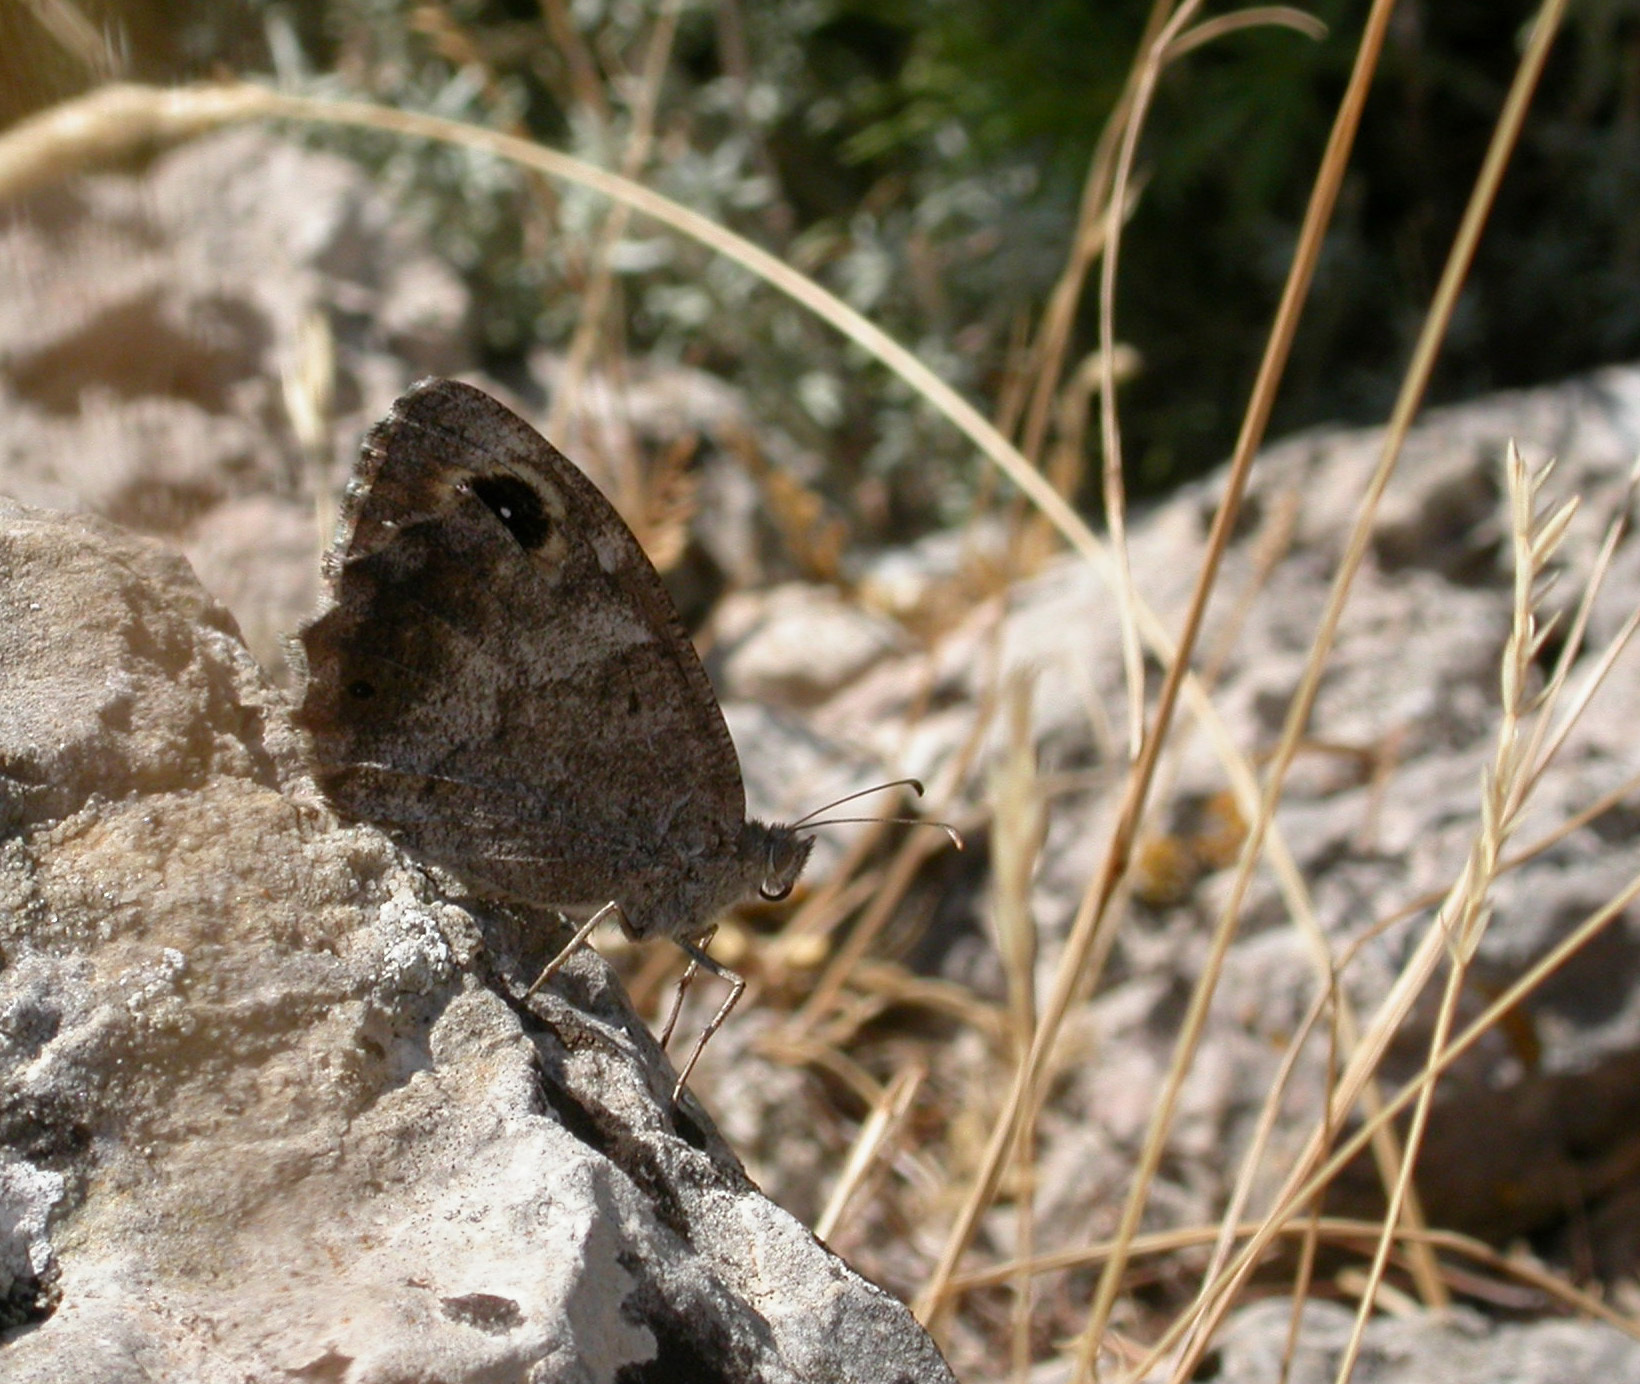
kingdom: Animalia
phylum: Arthropoda
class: Insecta
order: Lepidoptera
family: Nymphalidae
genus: Hipparchia
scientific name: Hipparchia statilinus
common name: Tree grayling
